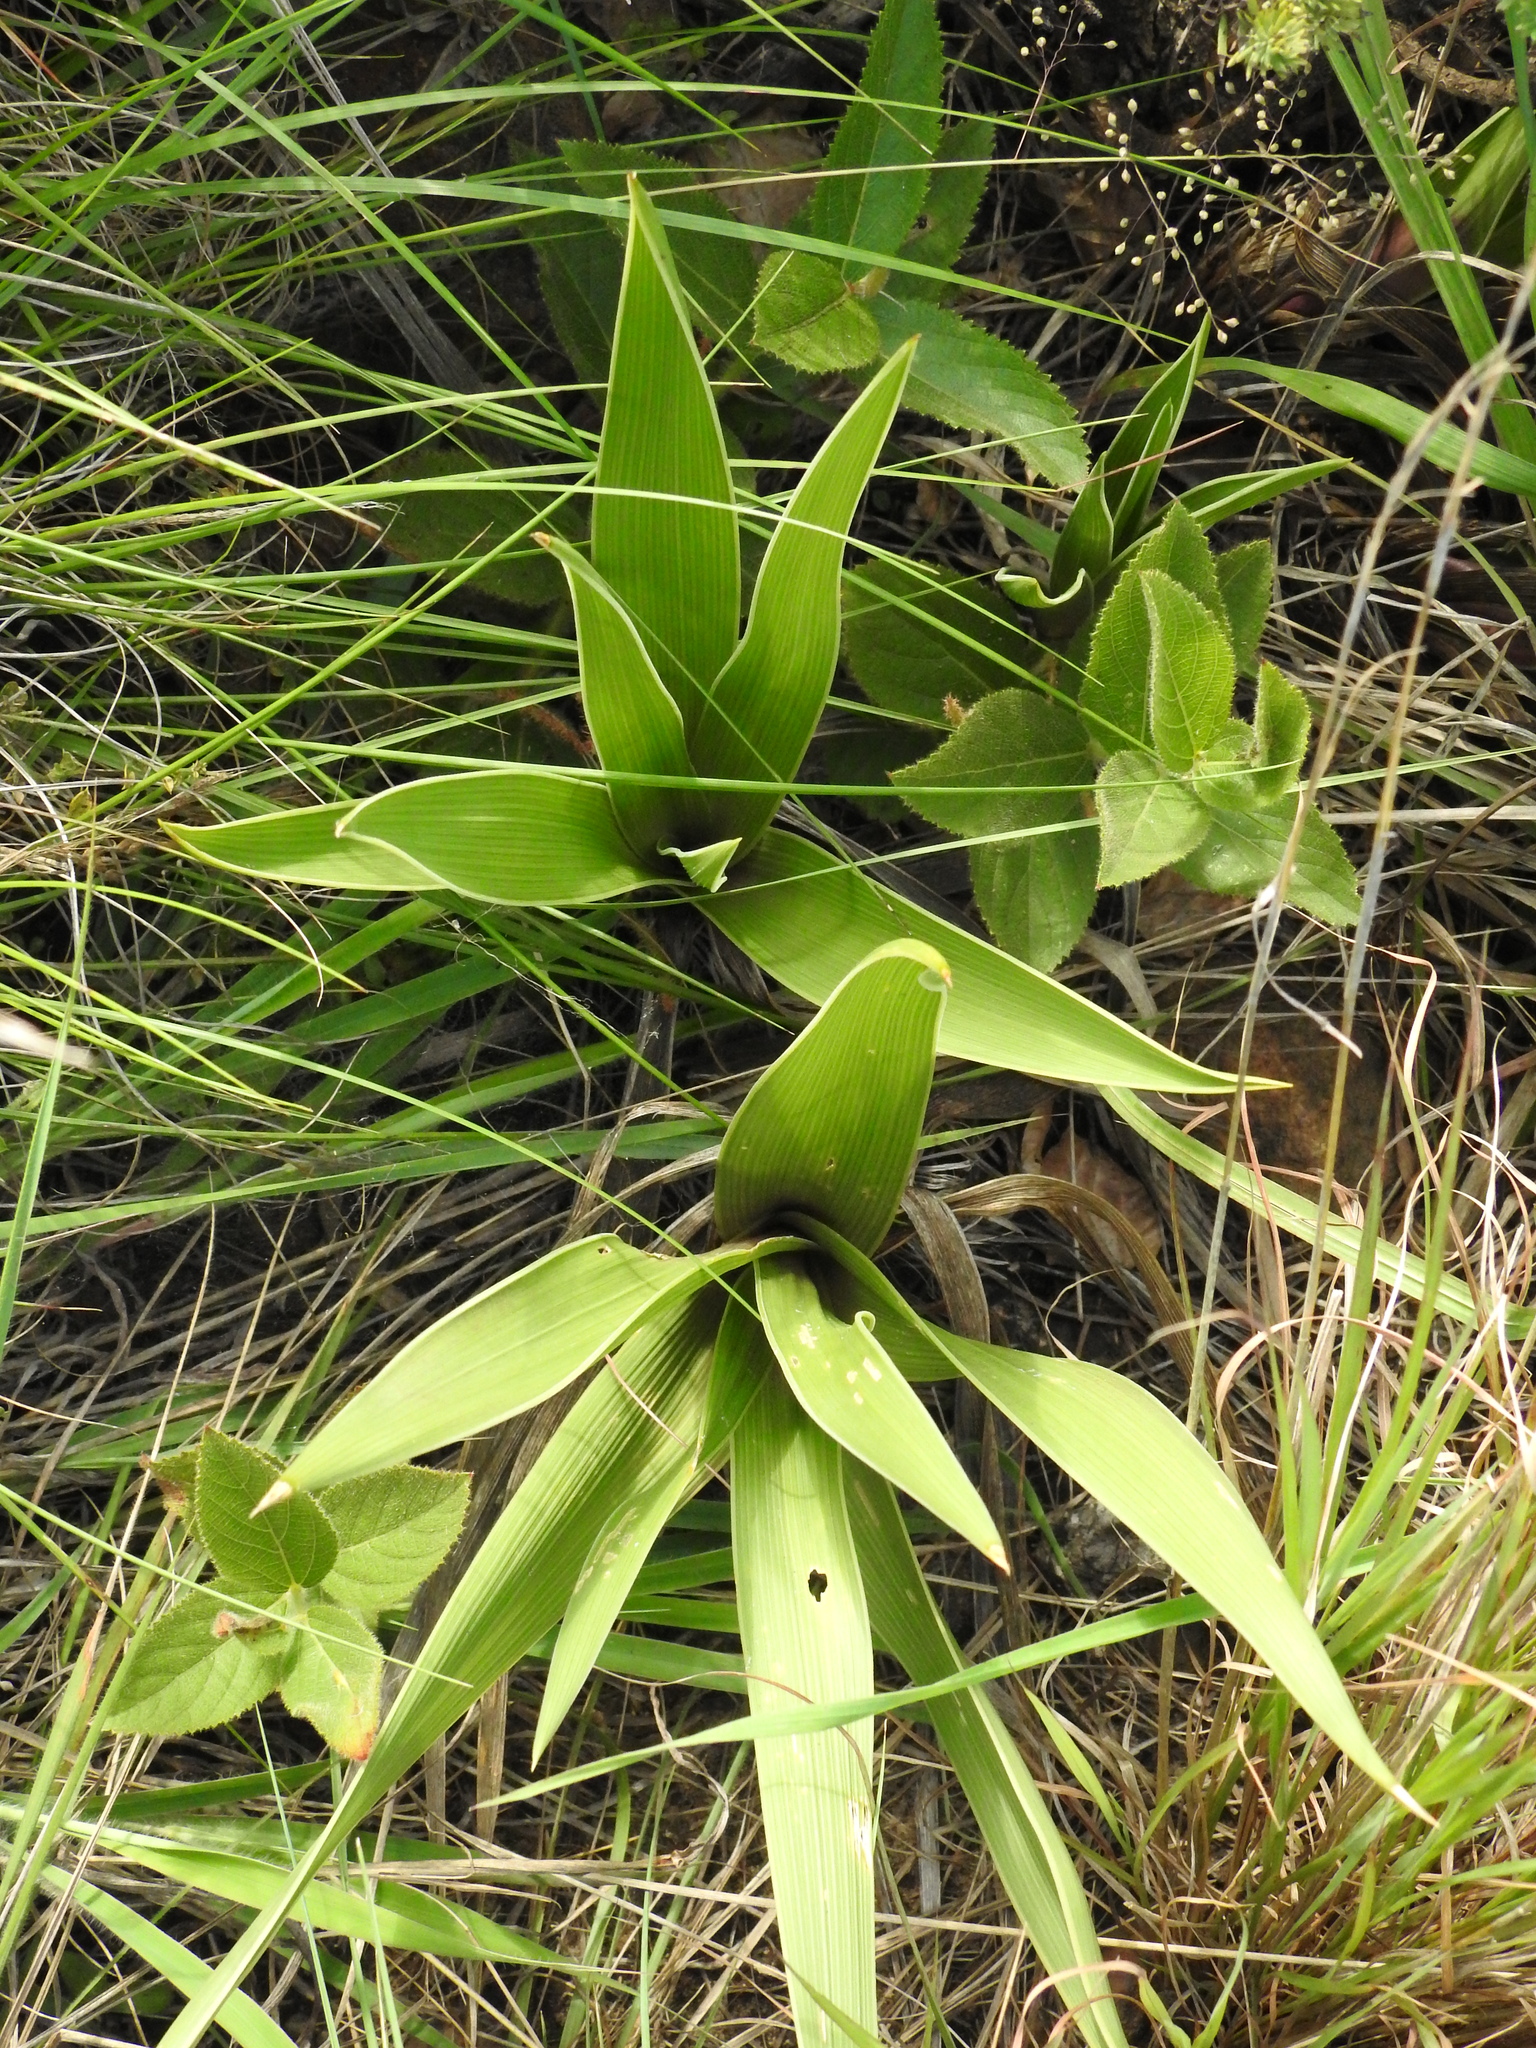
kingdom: Plantae
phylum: Tracheophyta
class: Liliopsida
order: Asparagales
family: Asparagaceae
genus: Schizocarphus
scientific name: Schizocarphus nervosus
